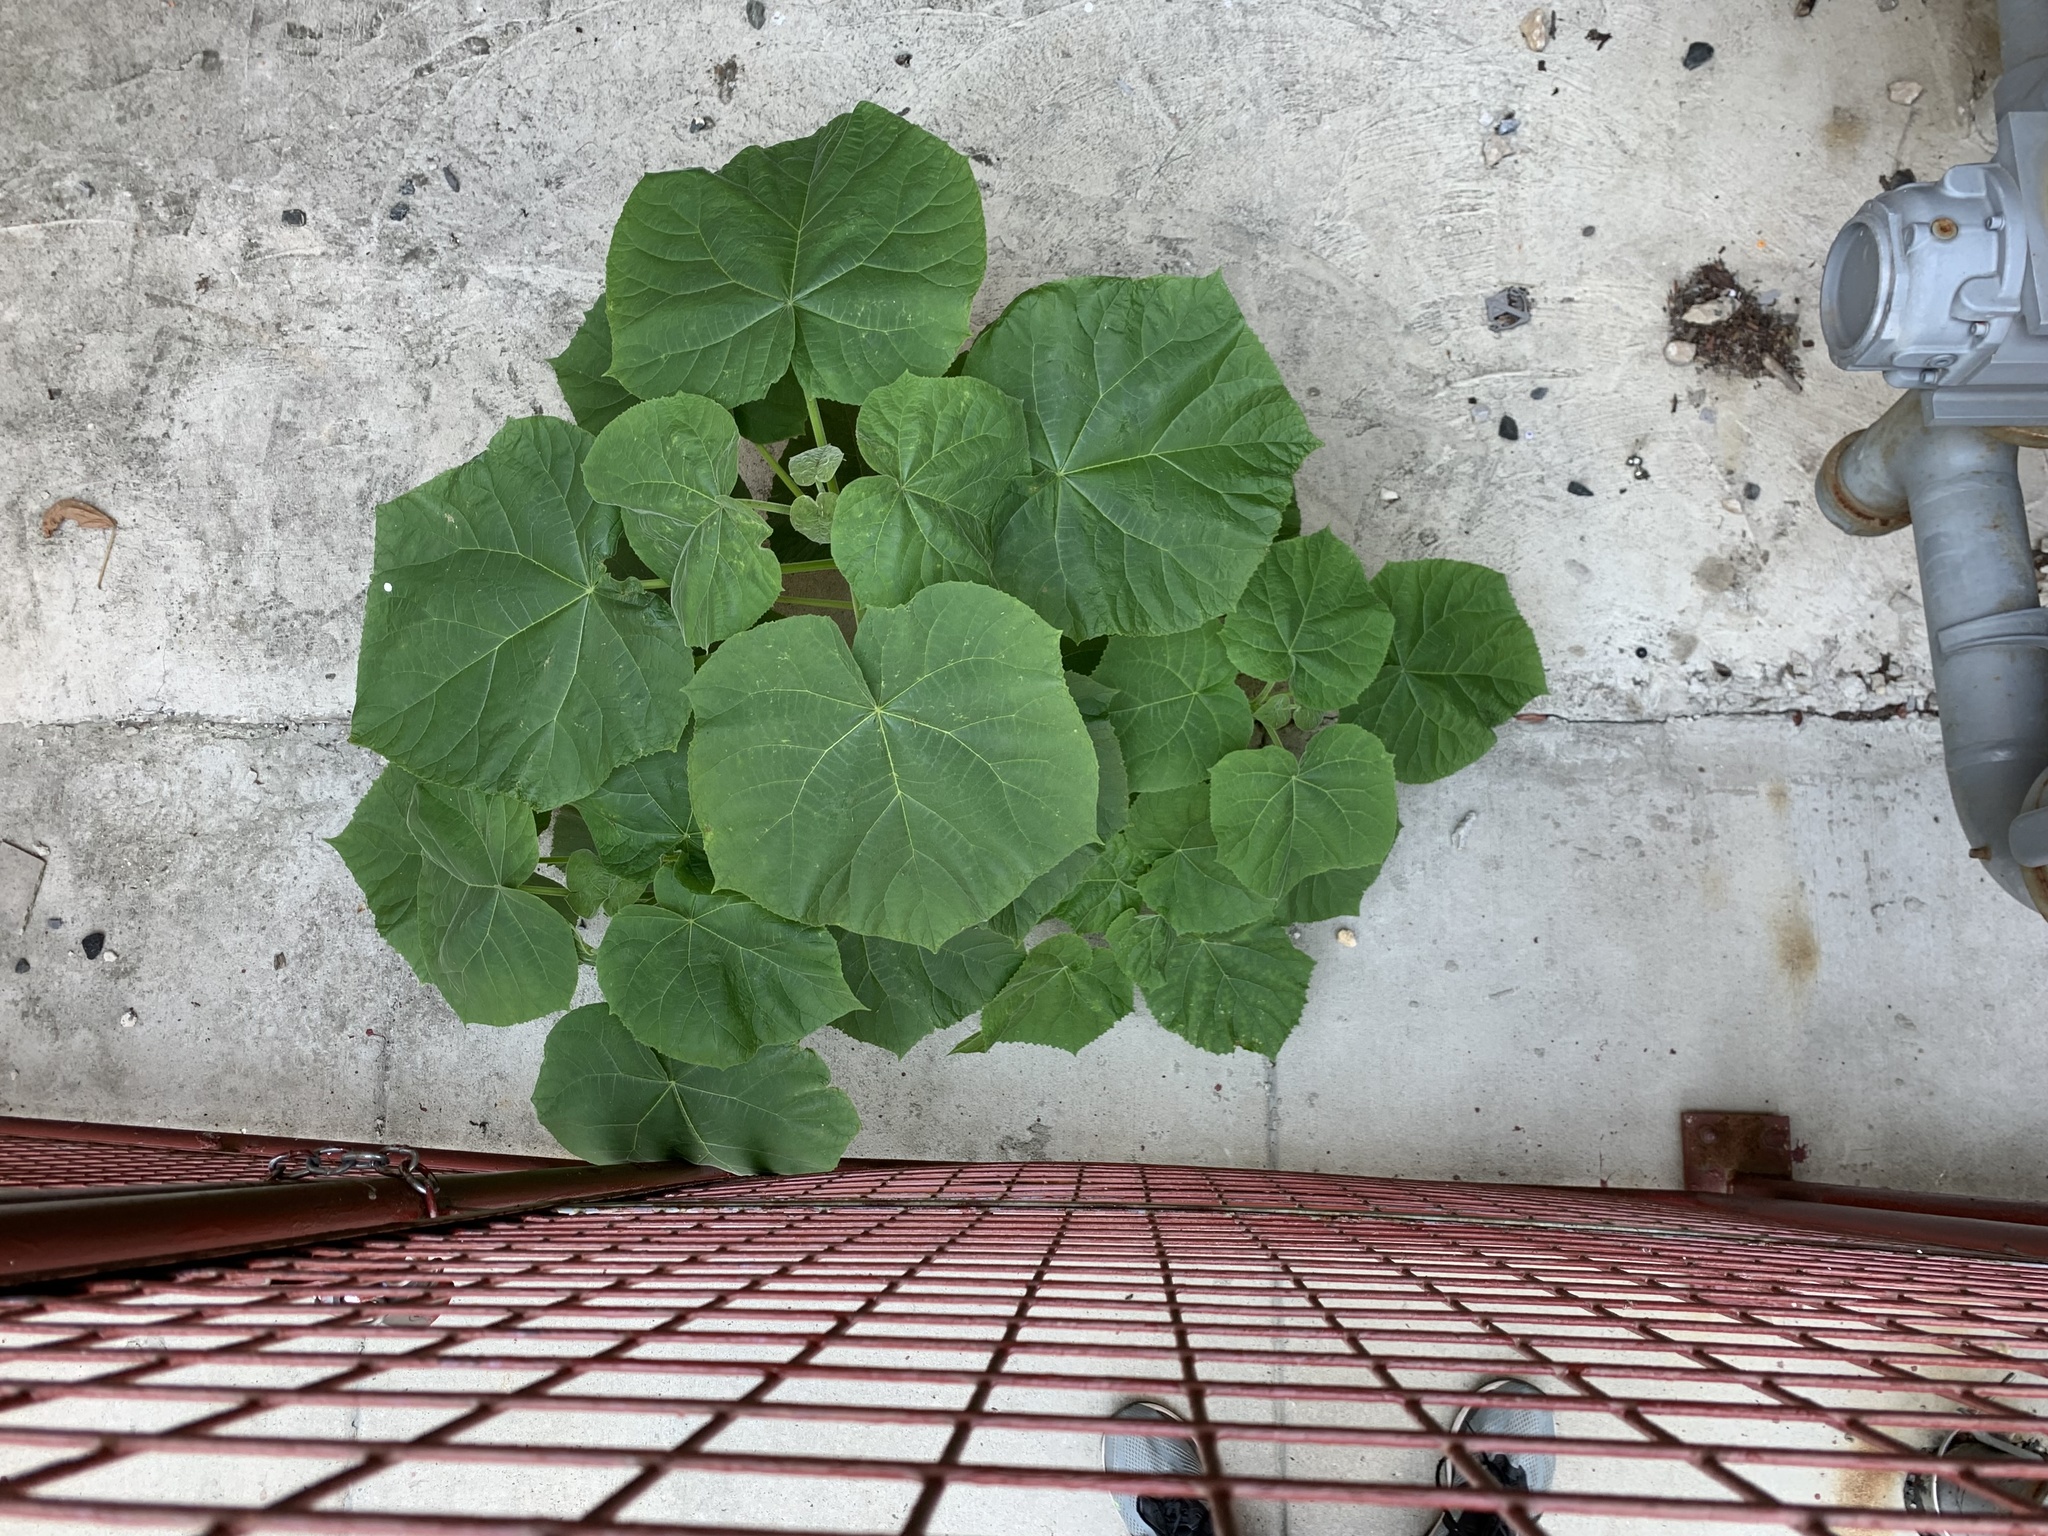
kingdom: Plantae
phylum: Tracheophyta
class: Magnoliopsida
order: Lamiales
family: Paulowniaceae
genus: Paulownia
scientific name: Paulownia tomentosa
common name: Foxglove-tree
